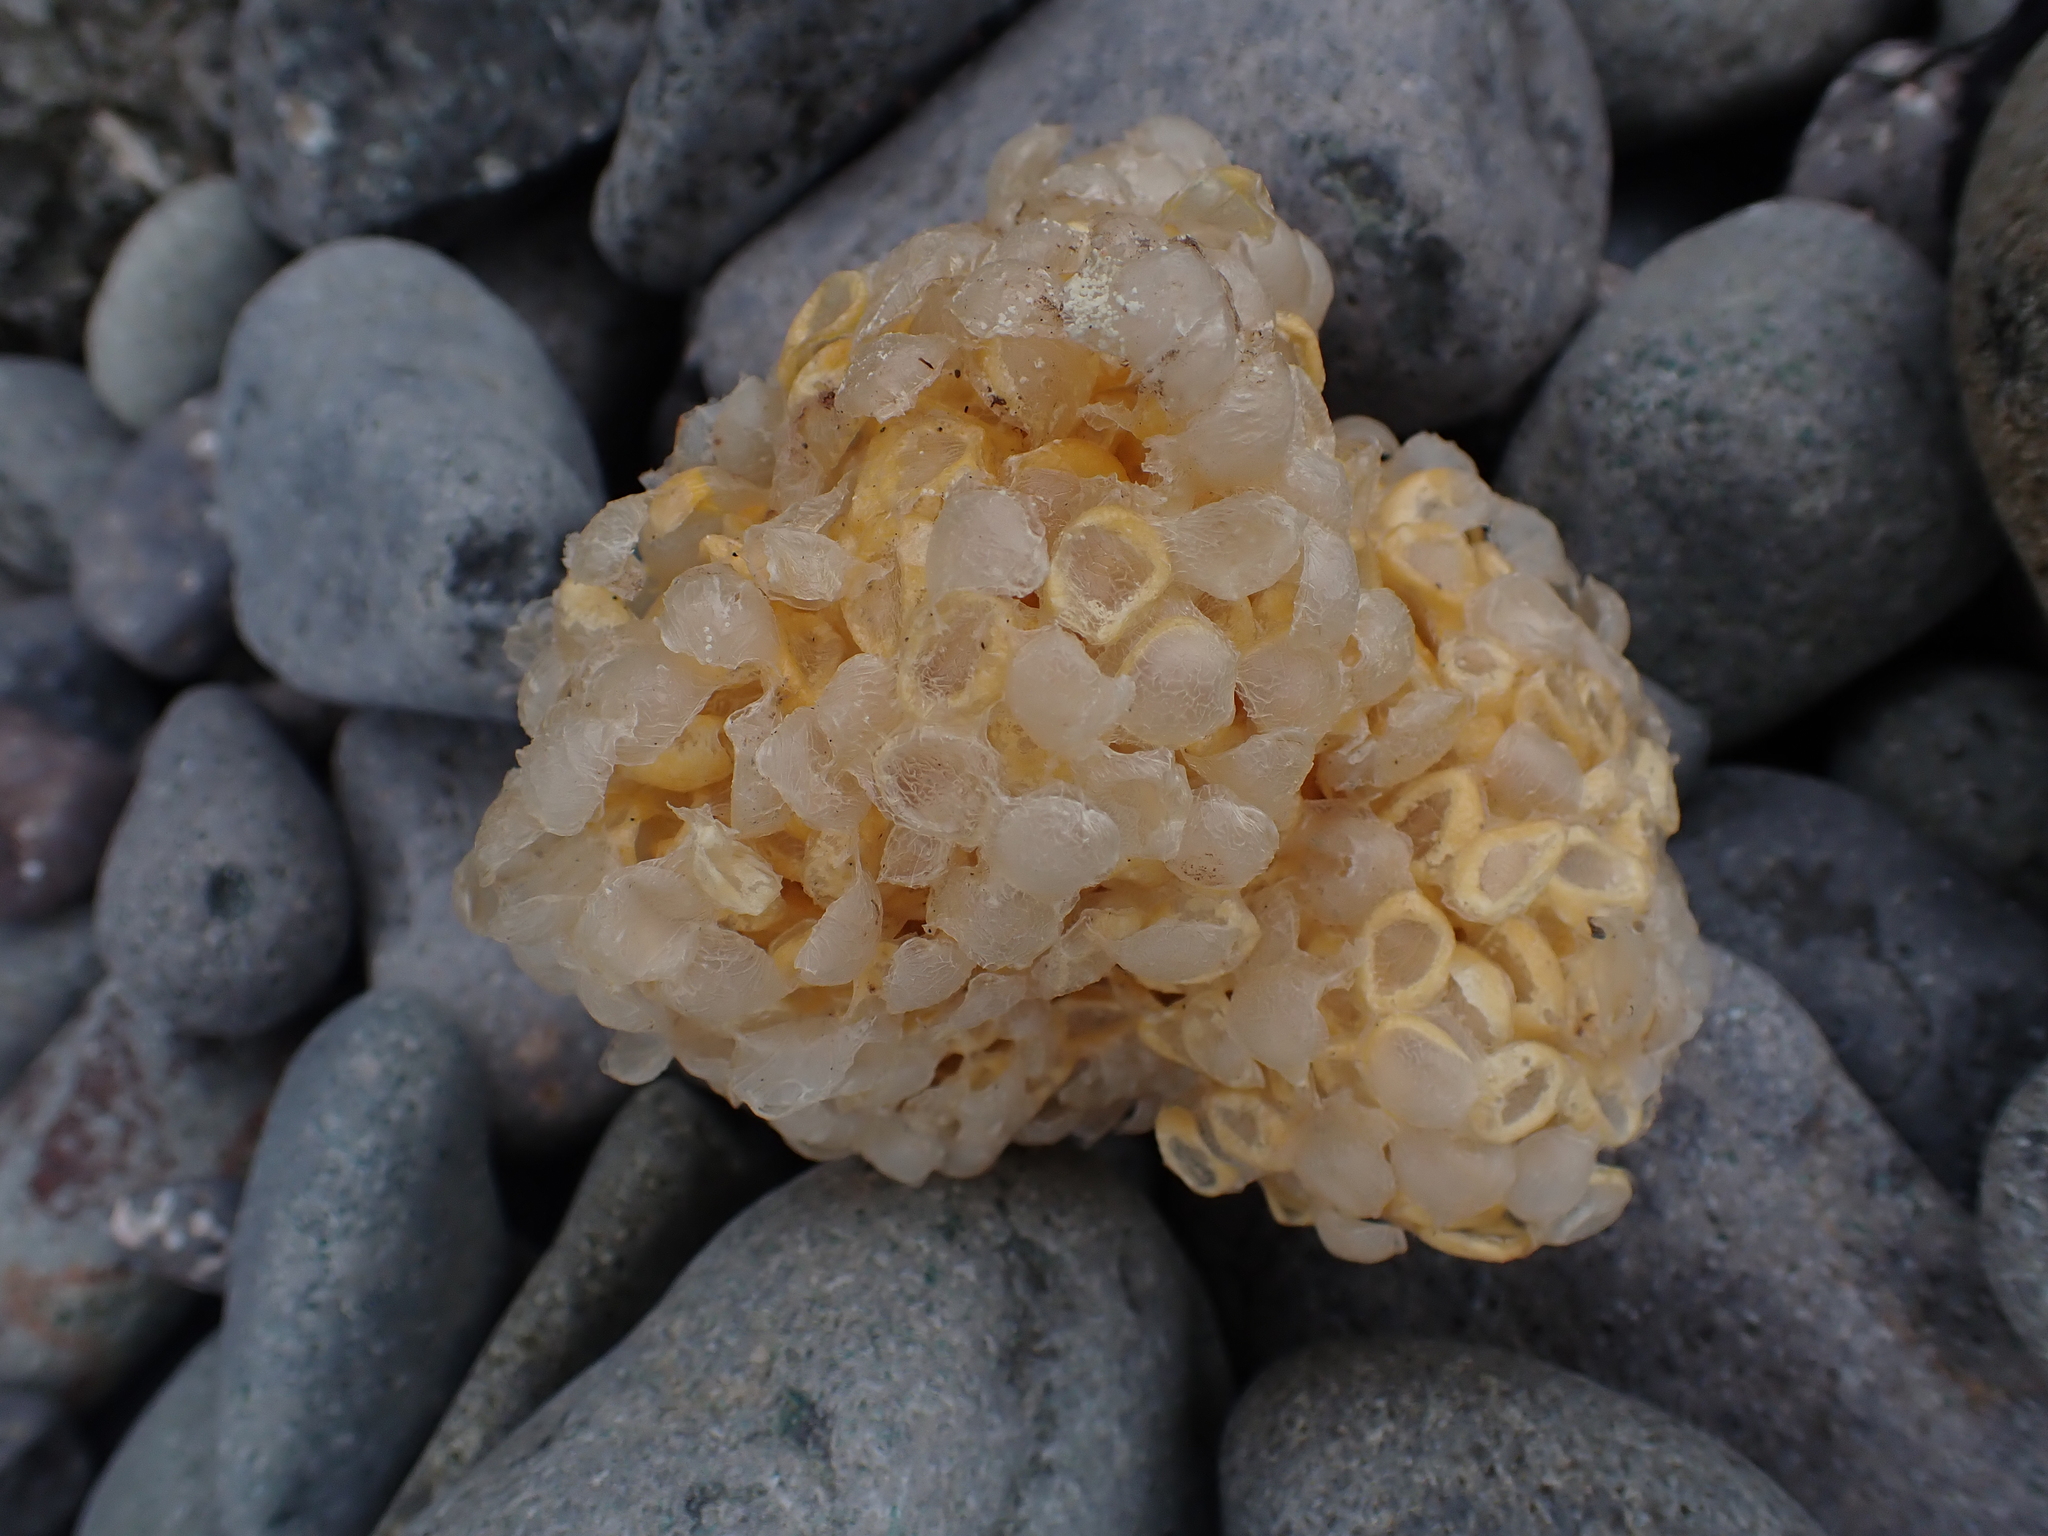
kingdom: Animalia
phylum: Mollusca
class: Gastropoda
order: Neogastropoda
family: Buccinidae
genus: Buccinum
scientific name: Buccinum undatum
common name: Common whelk
